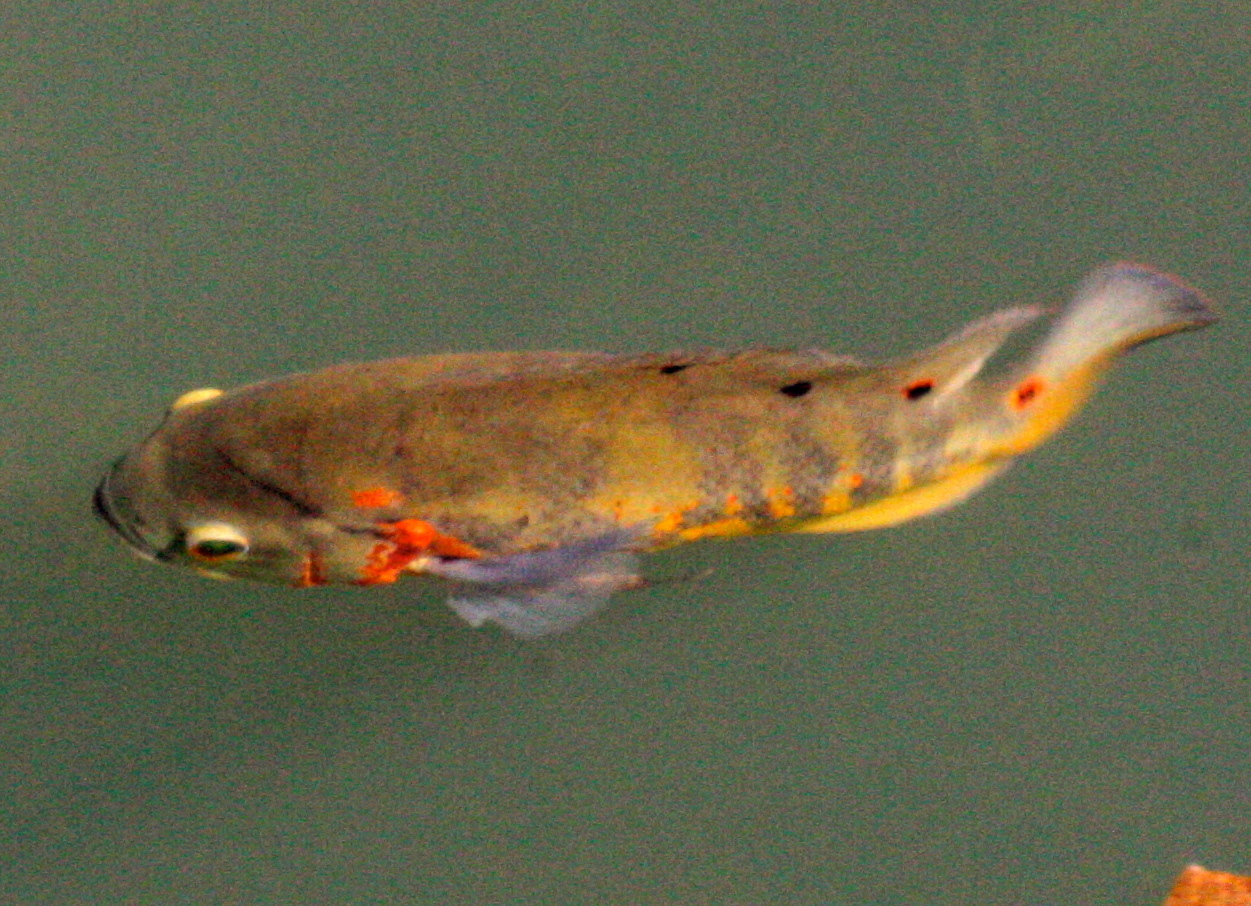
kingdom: Animalia
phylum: Chordata
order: Perciformes
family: Cichlidae
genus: Astronotus
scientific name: Astronotus ocellatus
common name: Oscar
